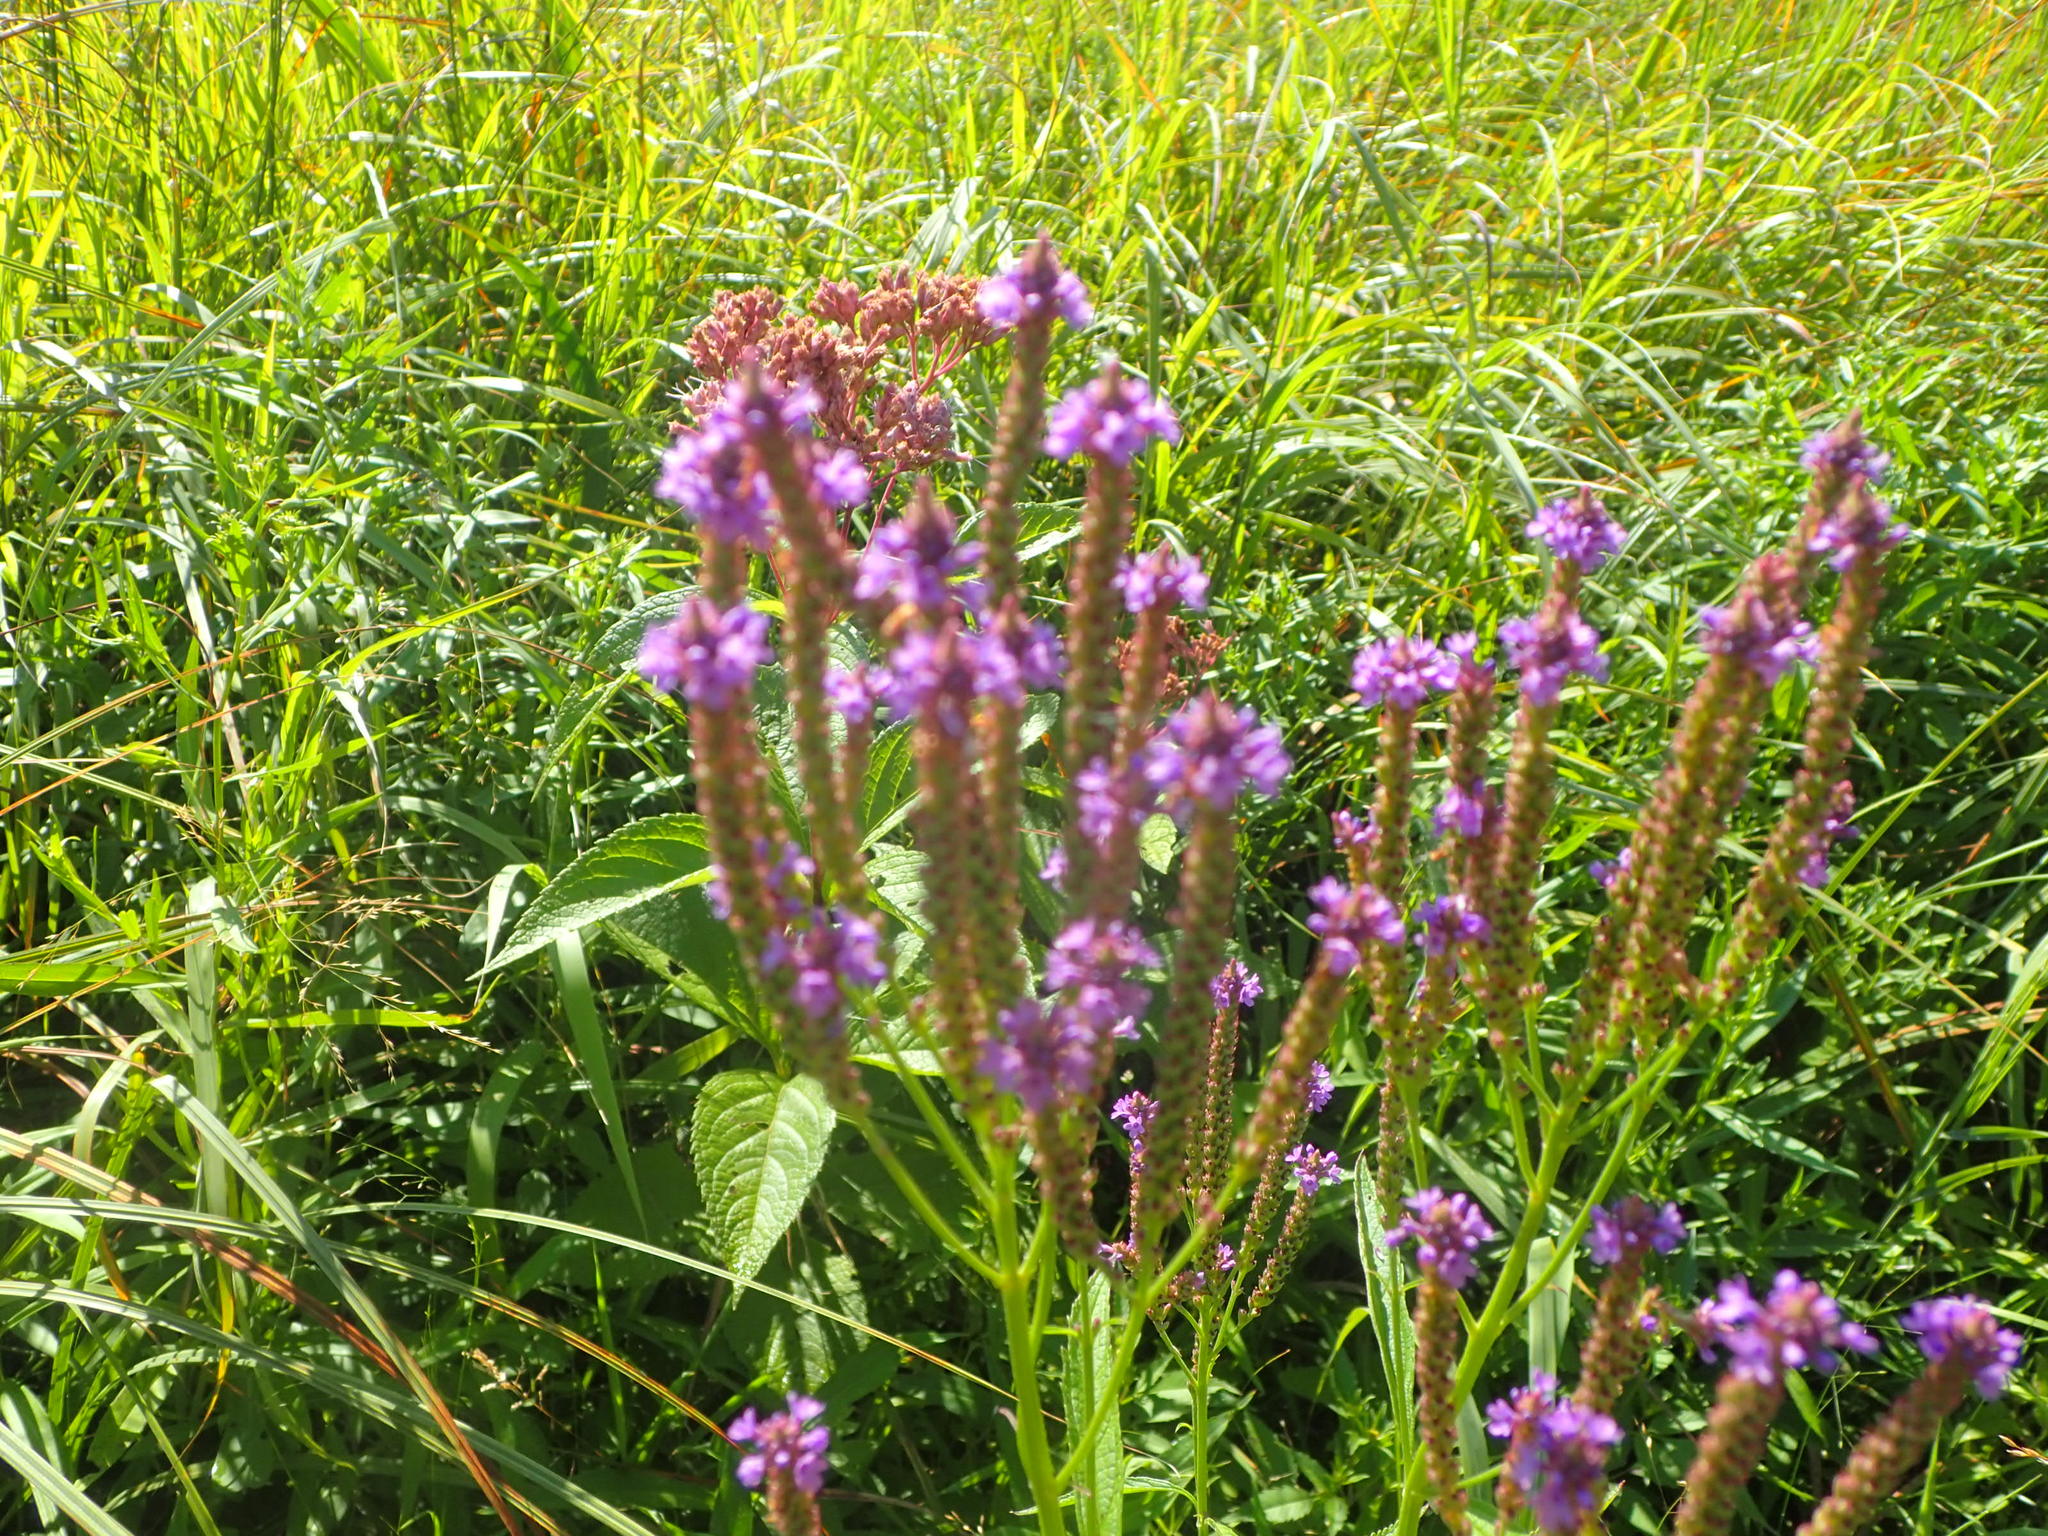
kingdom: Plantae
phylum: Tracheophyta
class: Magnoliopsida
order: Lamiales
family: Verbenaceae
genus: Verbena
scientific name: Verbena hastata
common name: American blue vervain
